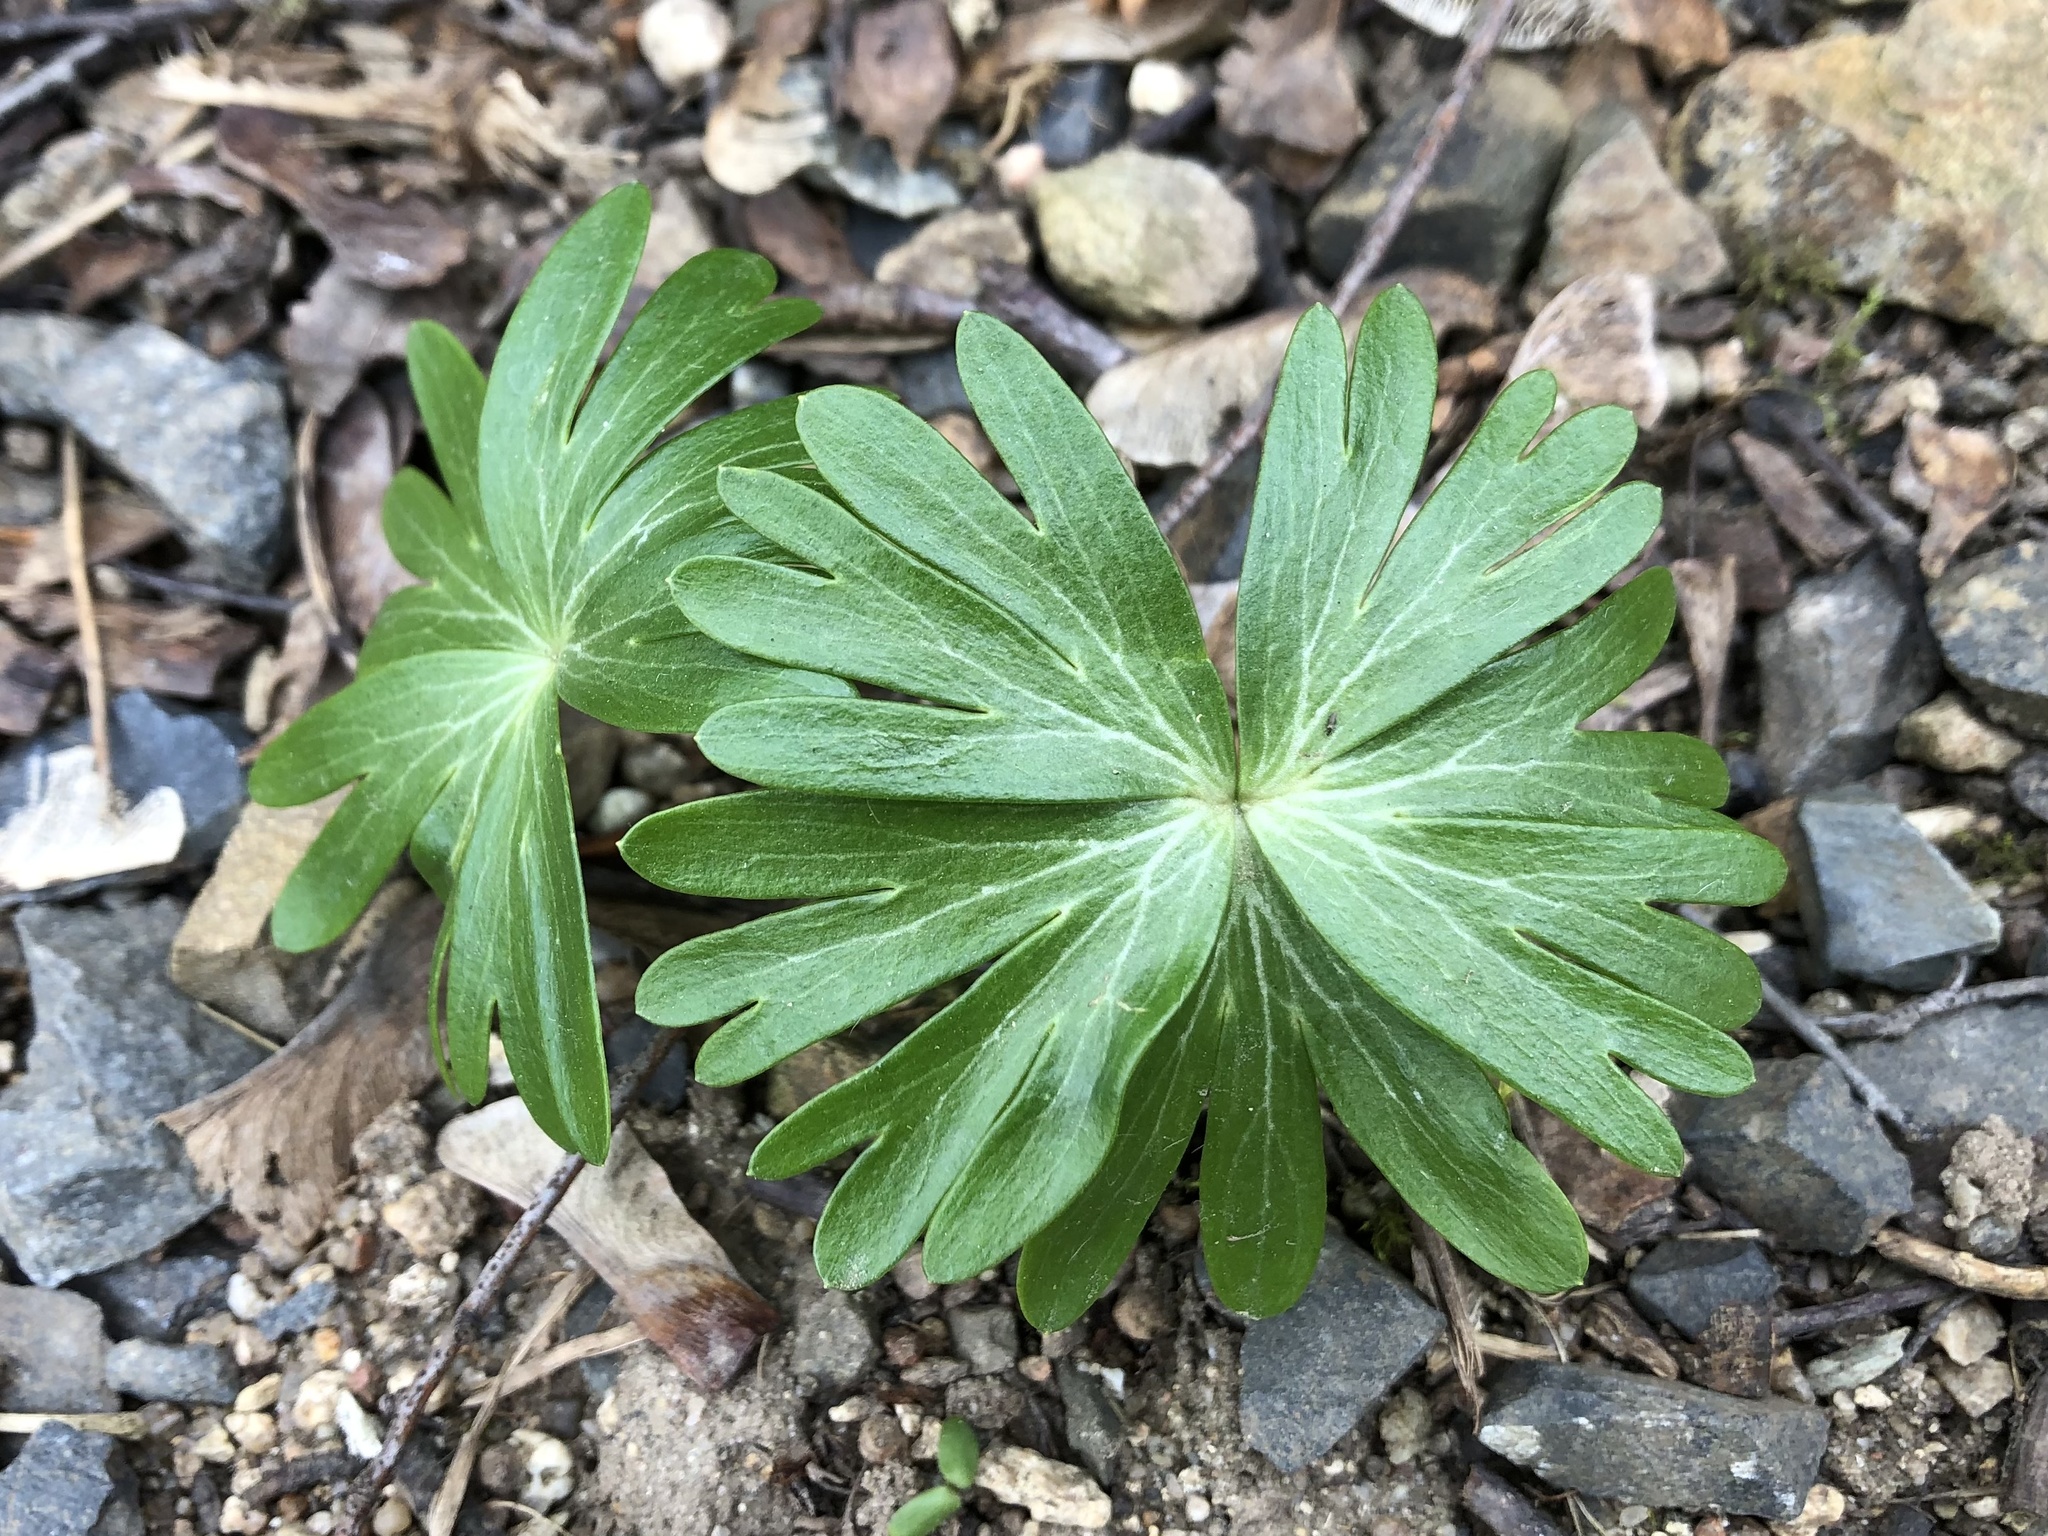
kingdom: Plantae
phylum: Tracheophyta
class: Magnoliopsida
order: Ranunculales
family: Ranunculaceae
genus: Eranthis
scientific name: Eranthis hyemalis
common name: Winter aconite
